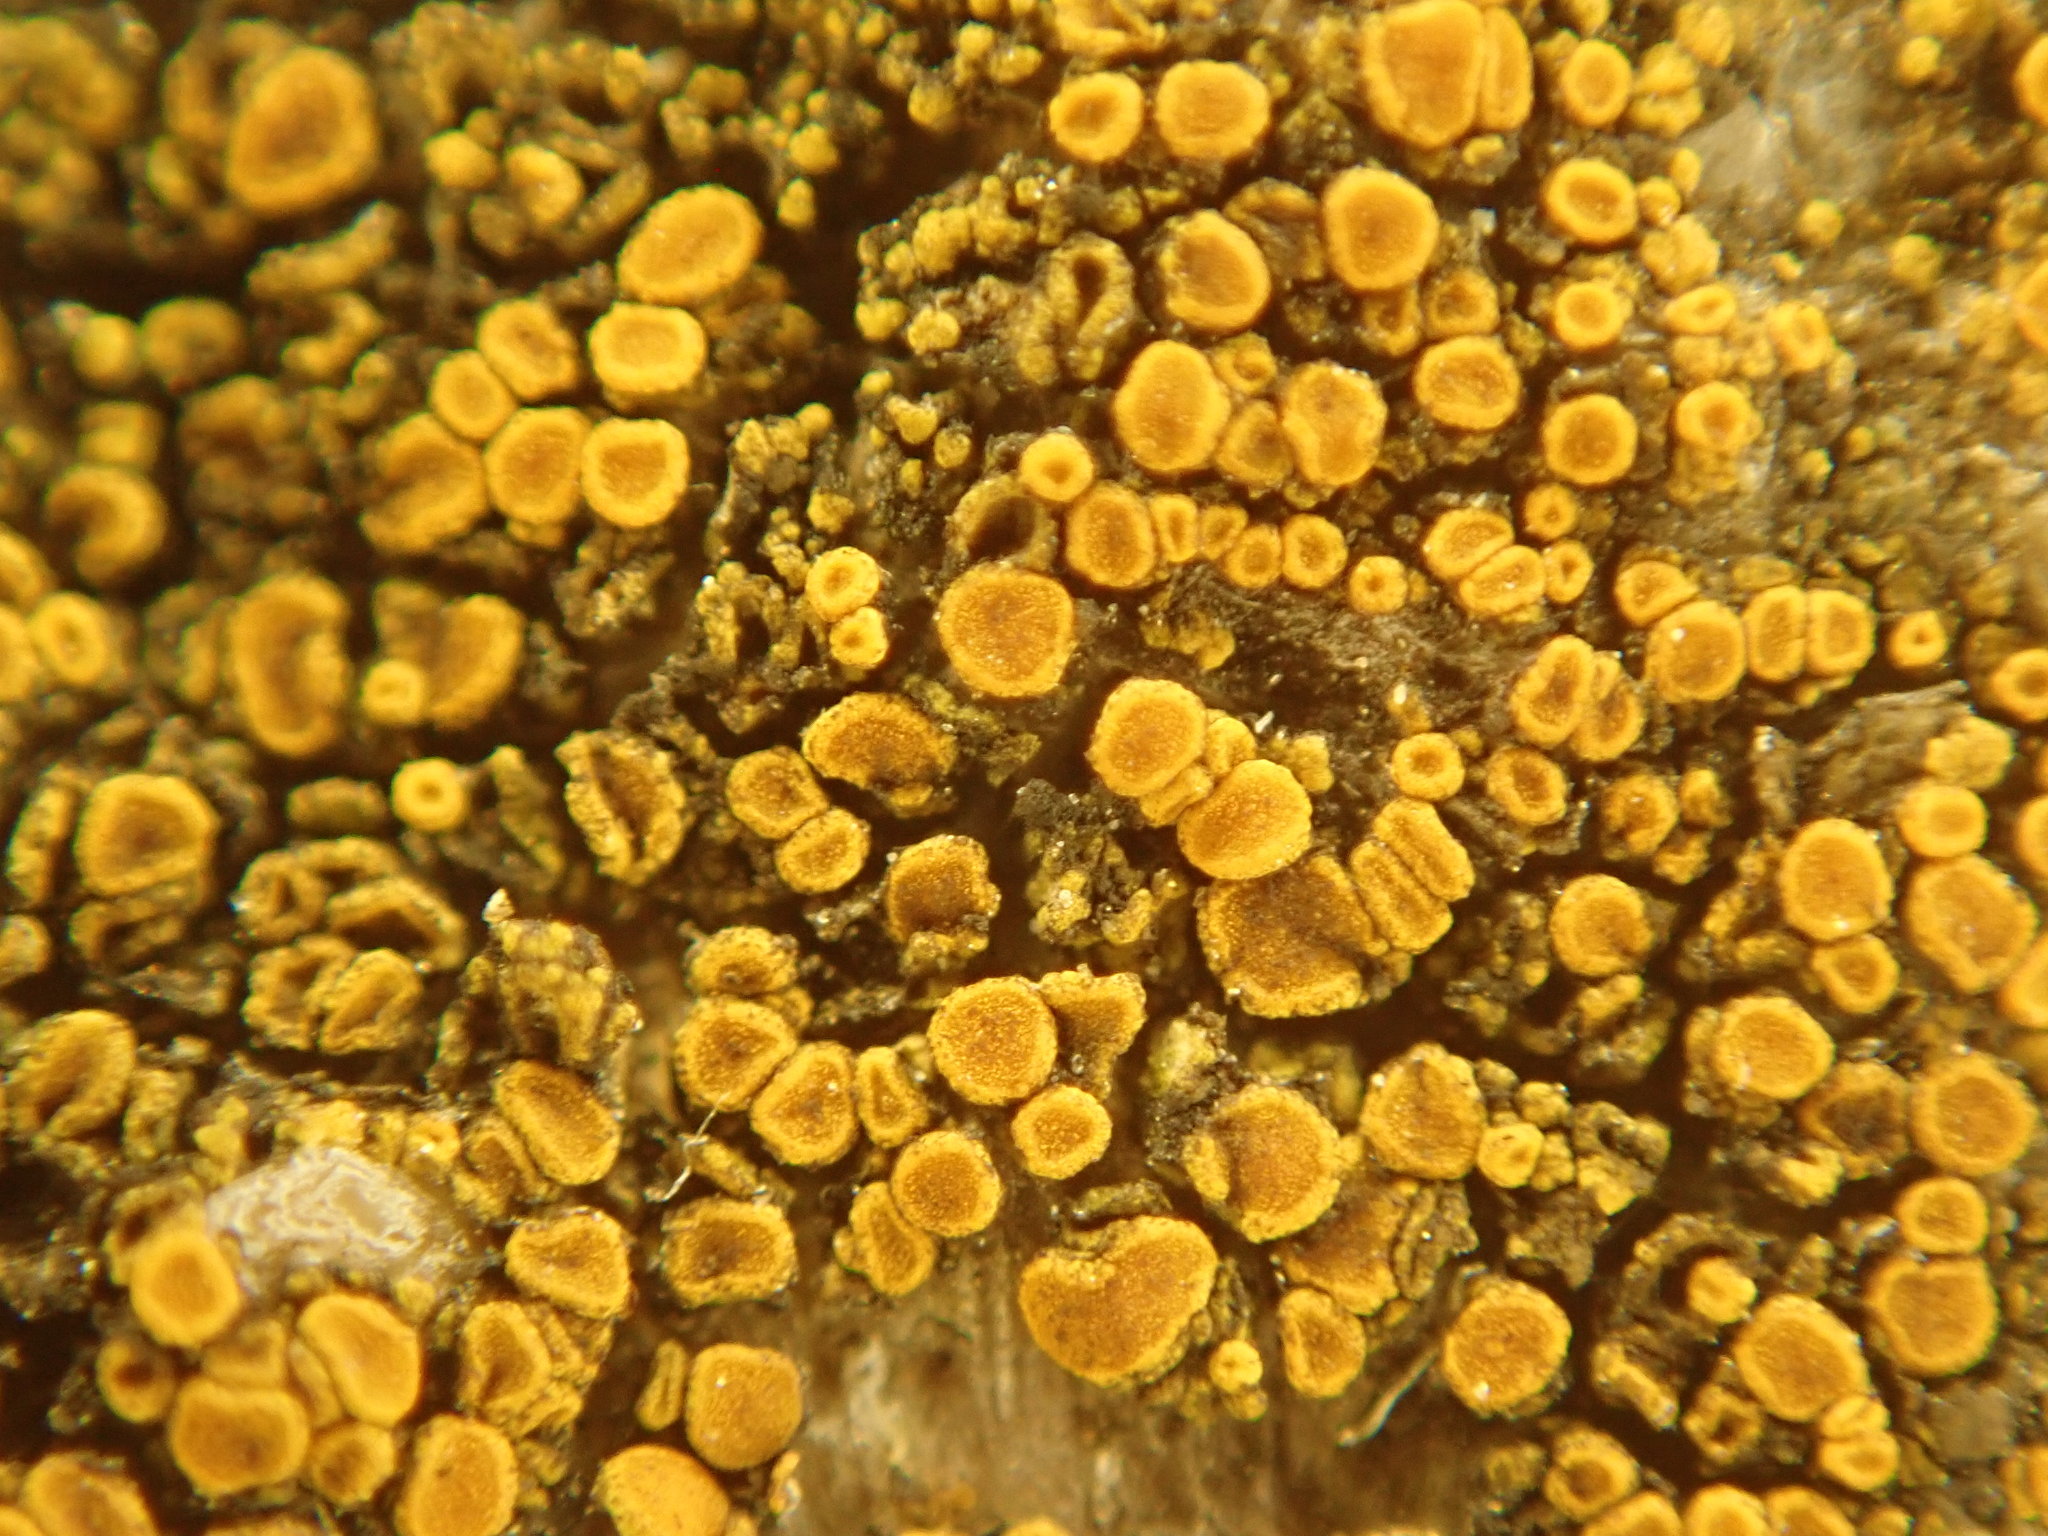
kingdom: Fungi
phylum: Ascomycota
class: Lecanoromycetes
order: Teloschistales
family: Teloschistaceae
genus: Xanthocarpia
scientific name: Xanthocarpia feracissima
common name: Sidewalk firedot
